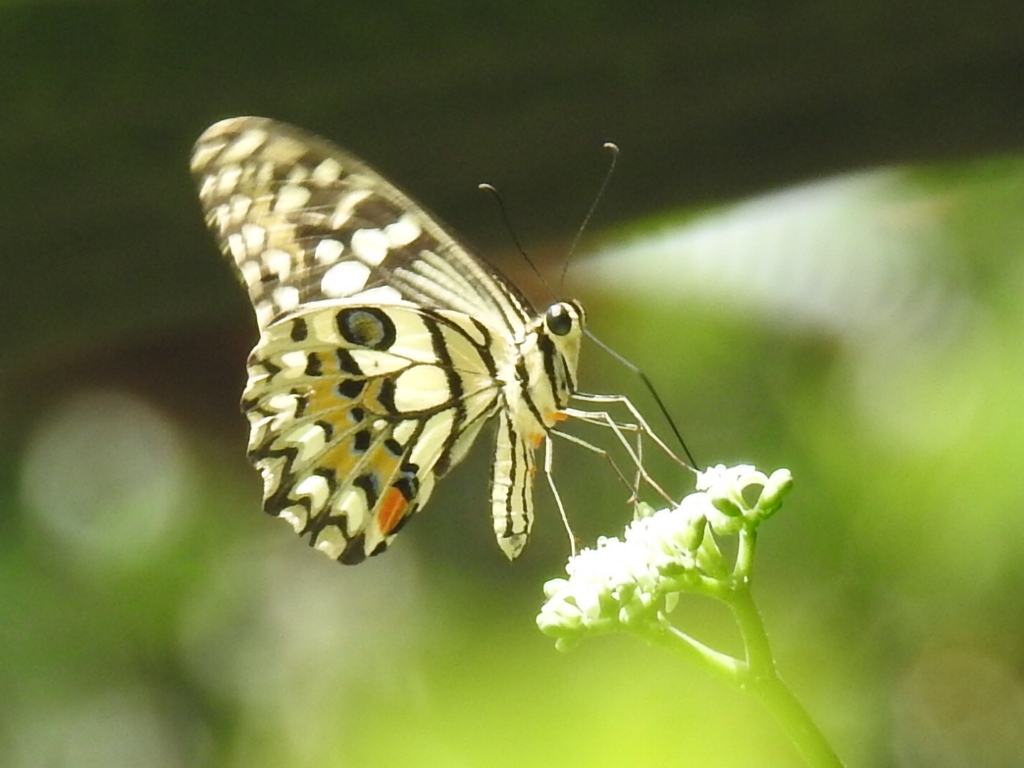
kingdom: Animalia
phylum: Arthropoda
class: Insecta
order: Lepidoptera
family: Papilionidae
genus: Papilio
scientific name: Papilio demoleus
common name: Lime butterfly
